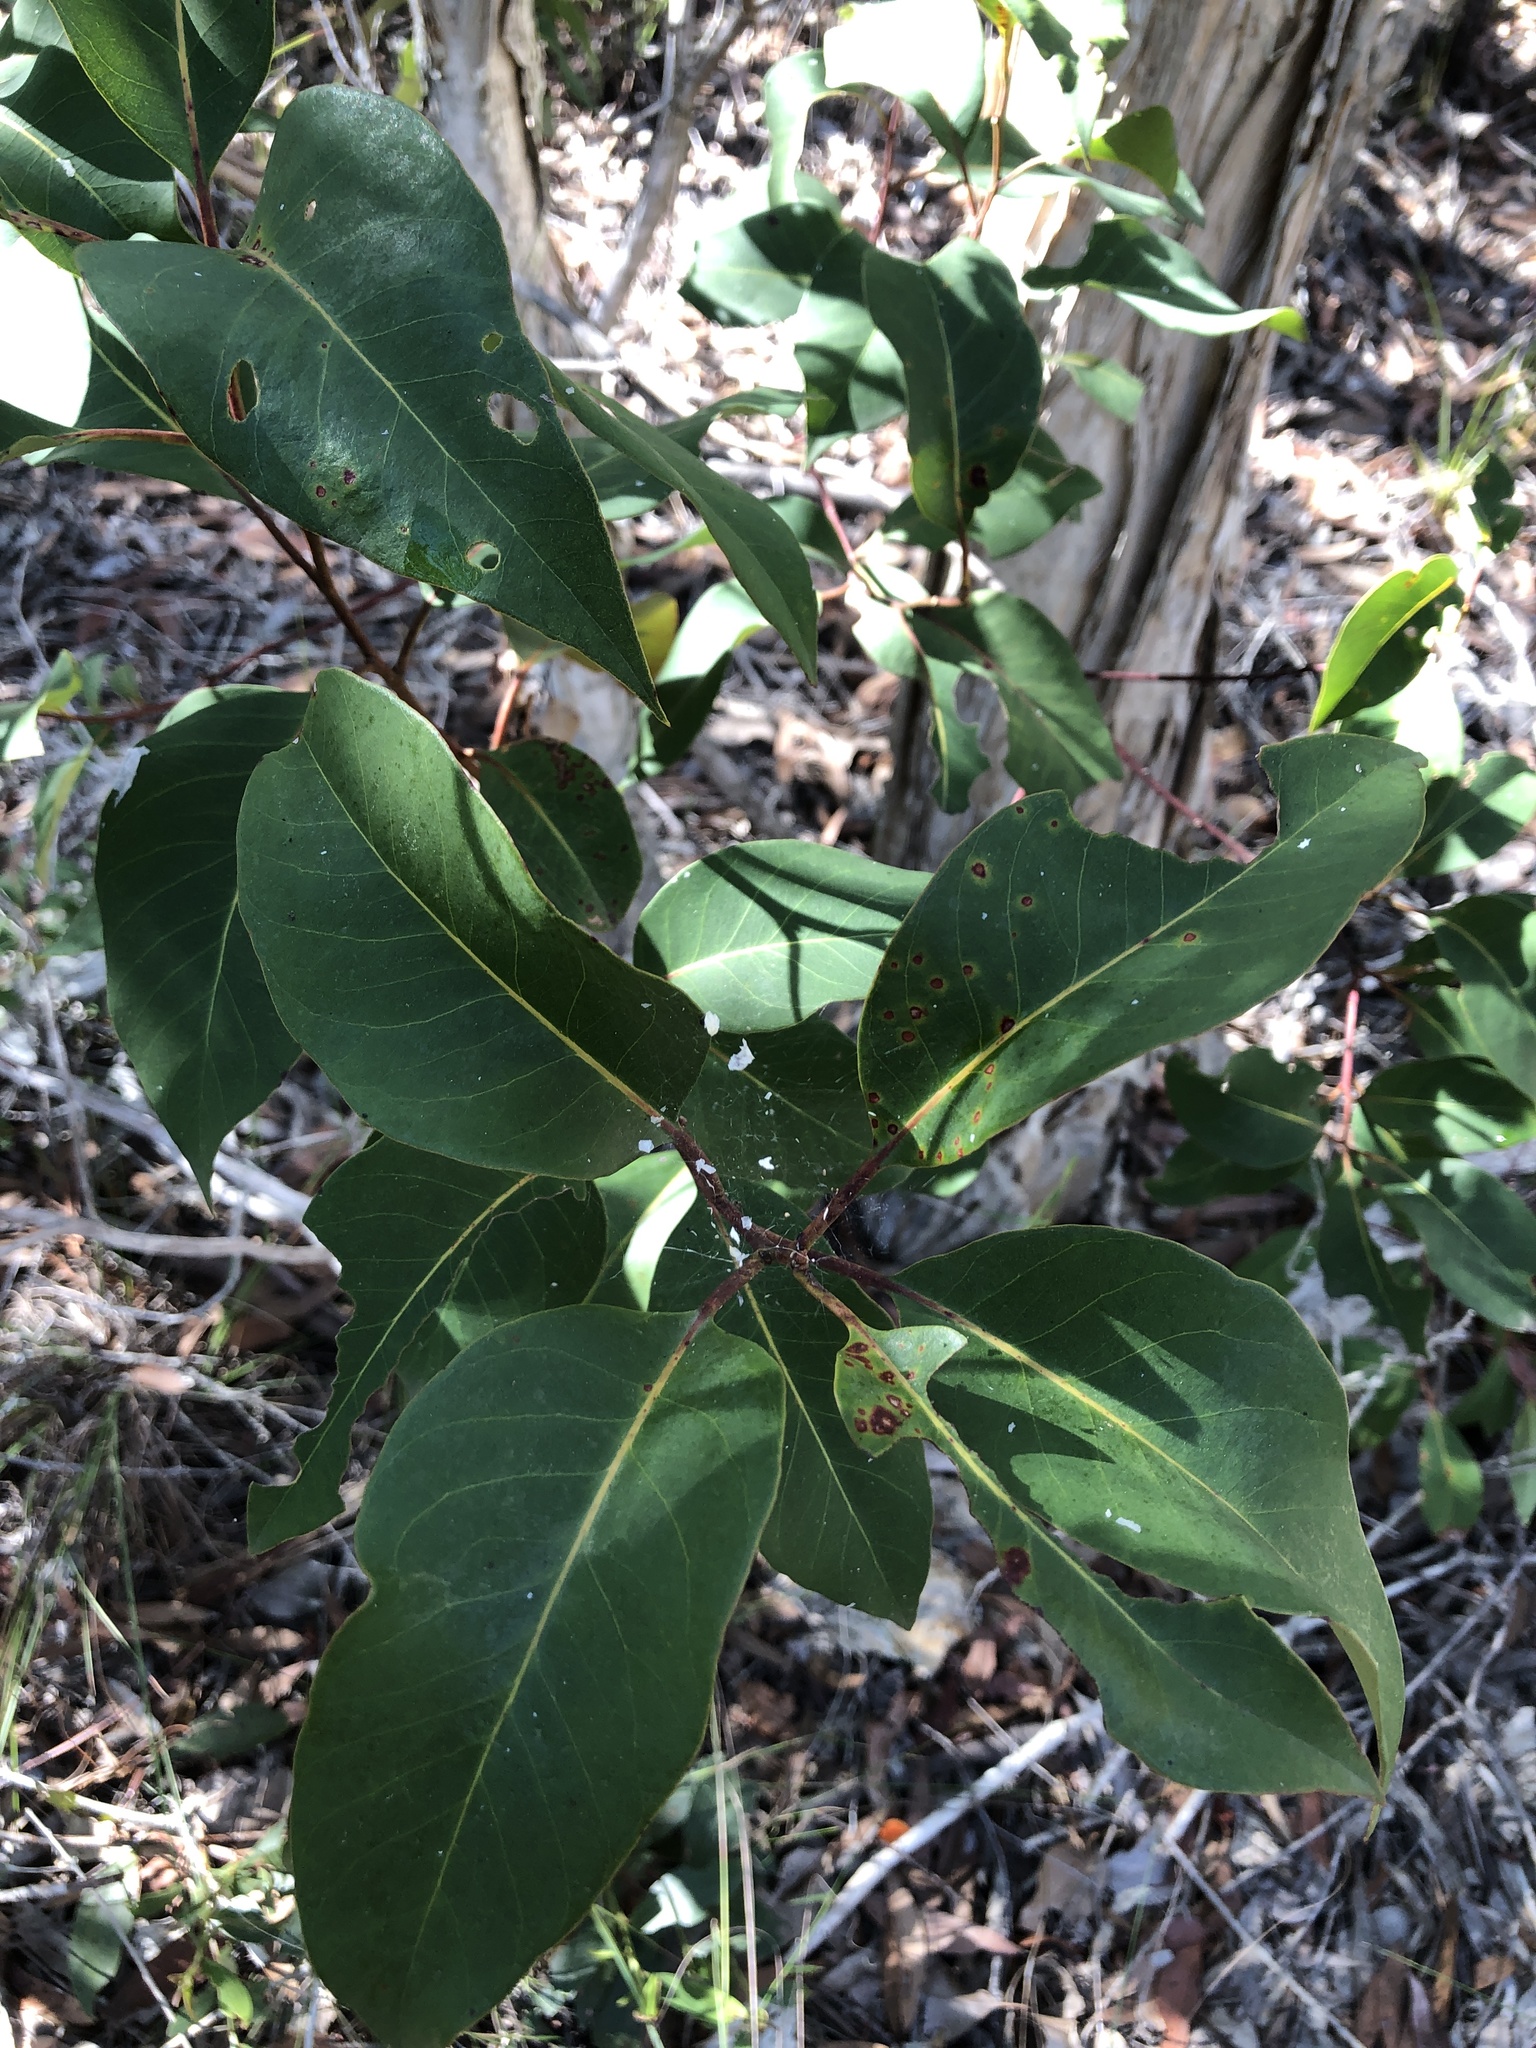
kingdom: Plantae
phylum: Tracheophyta
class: Magnoliopsida
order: Myrtales
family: Myrtaceae
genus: Lophostemon
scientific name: Lophostemon suaveolens
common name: Paperbark-mahogany
